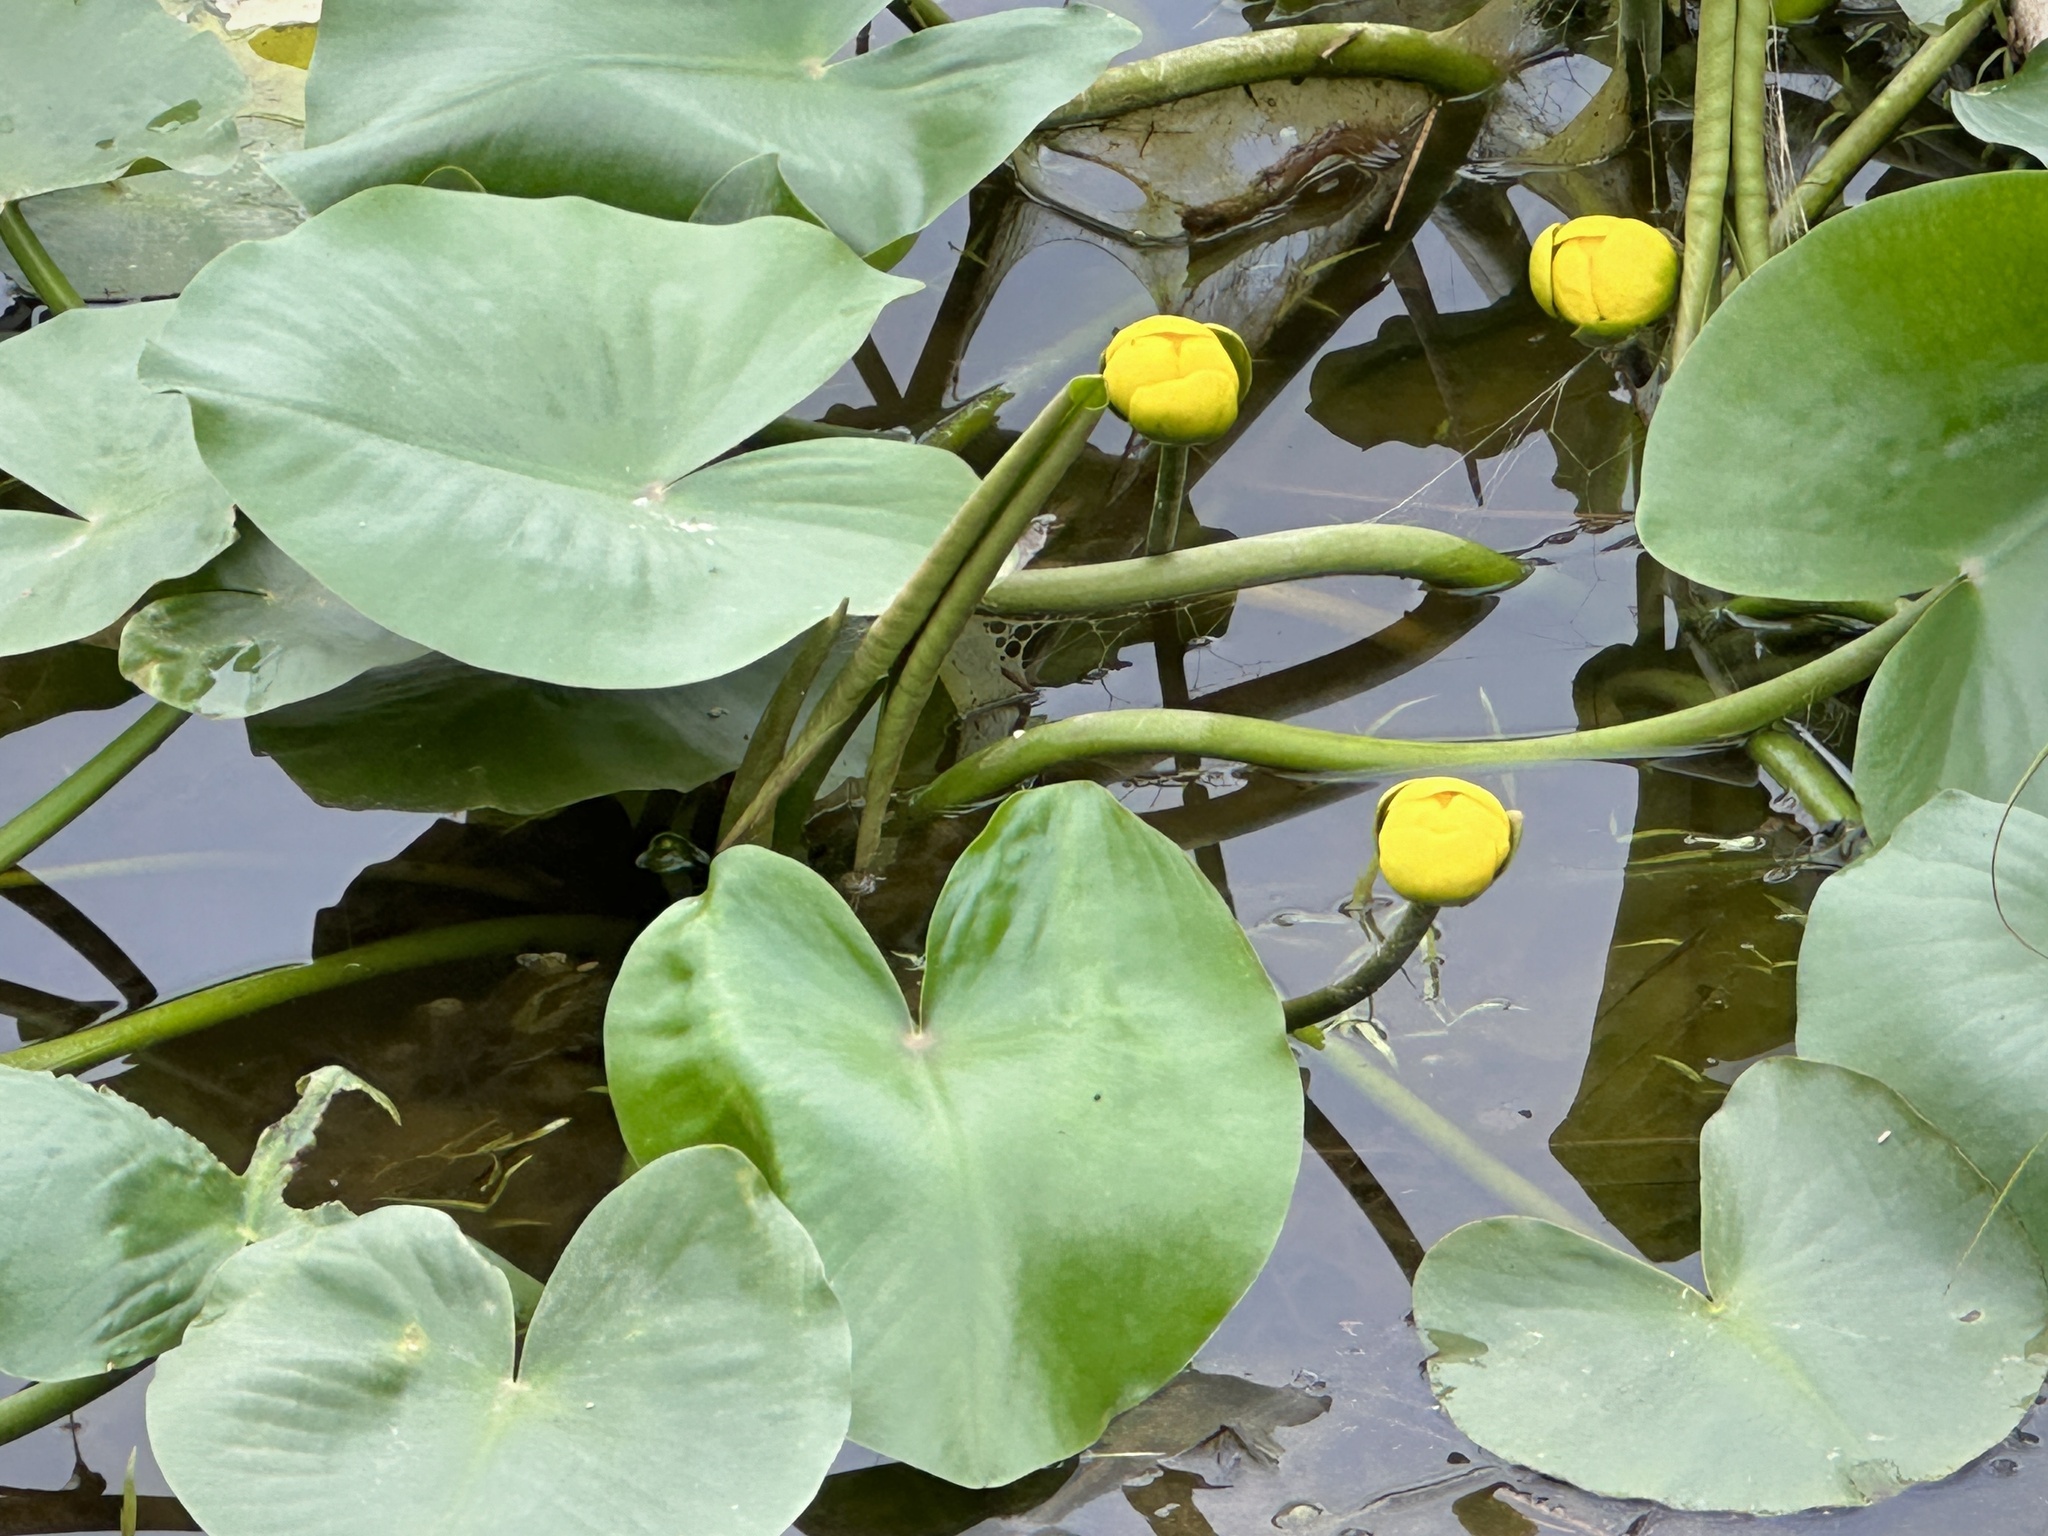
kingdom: Plantae
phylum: Tracheophyta
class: Magnoliopsida
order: Nymphaeales
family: Nymphaeaceae
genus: Nuphar
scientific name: Nuphar advena
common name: Spatter-dock
